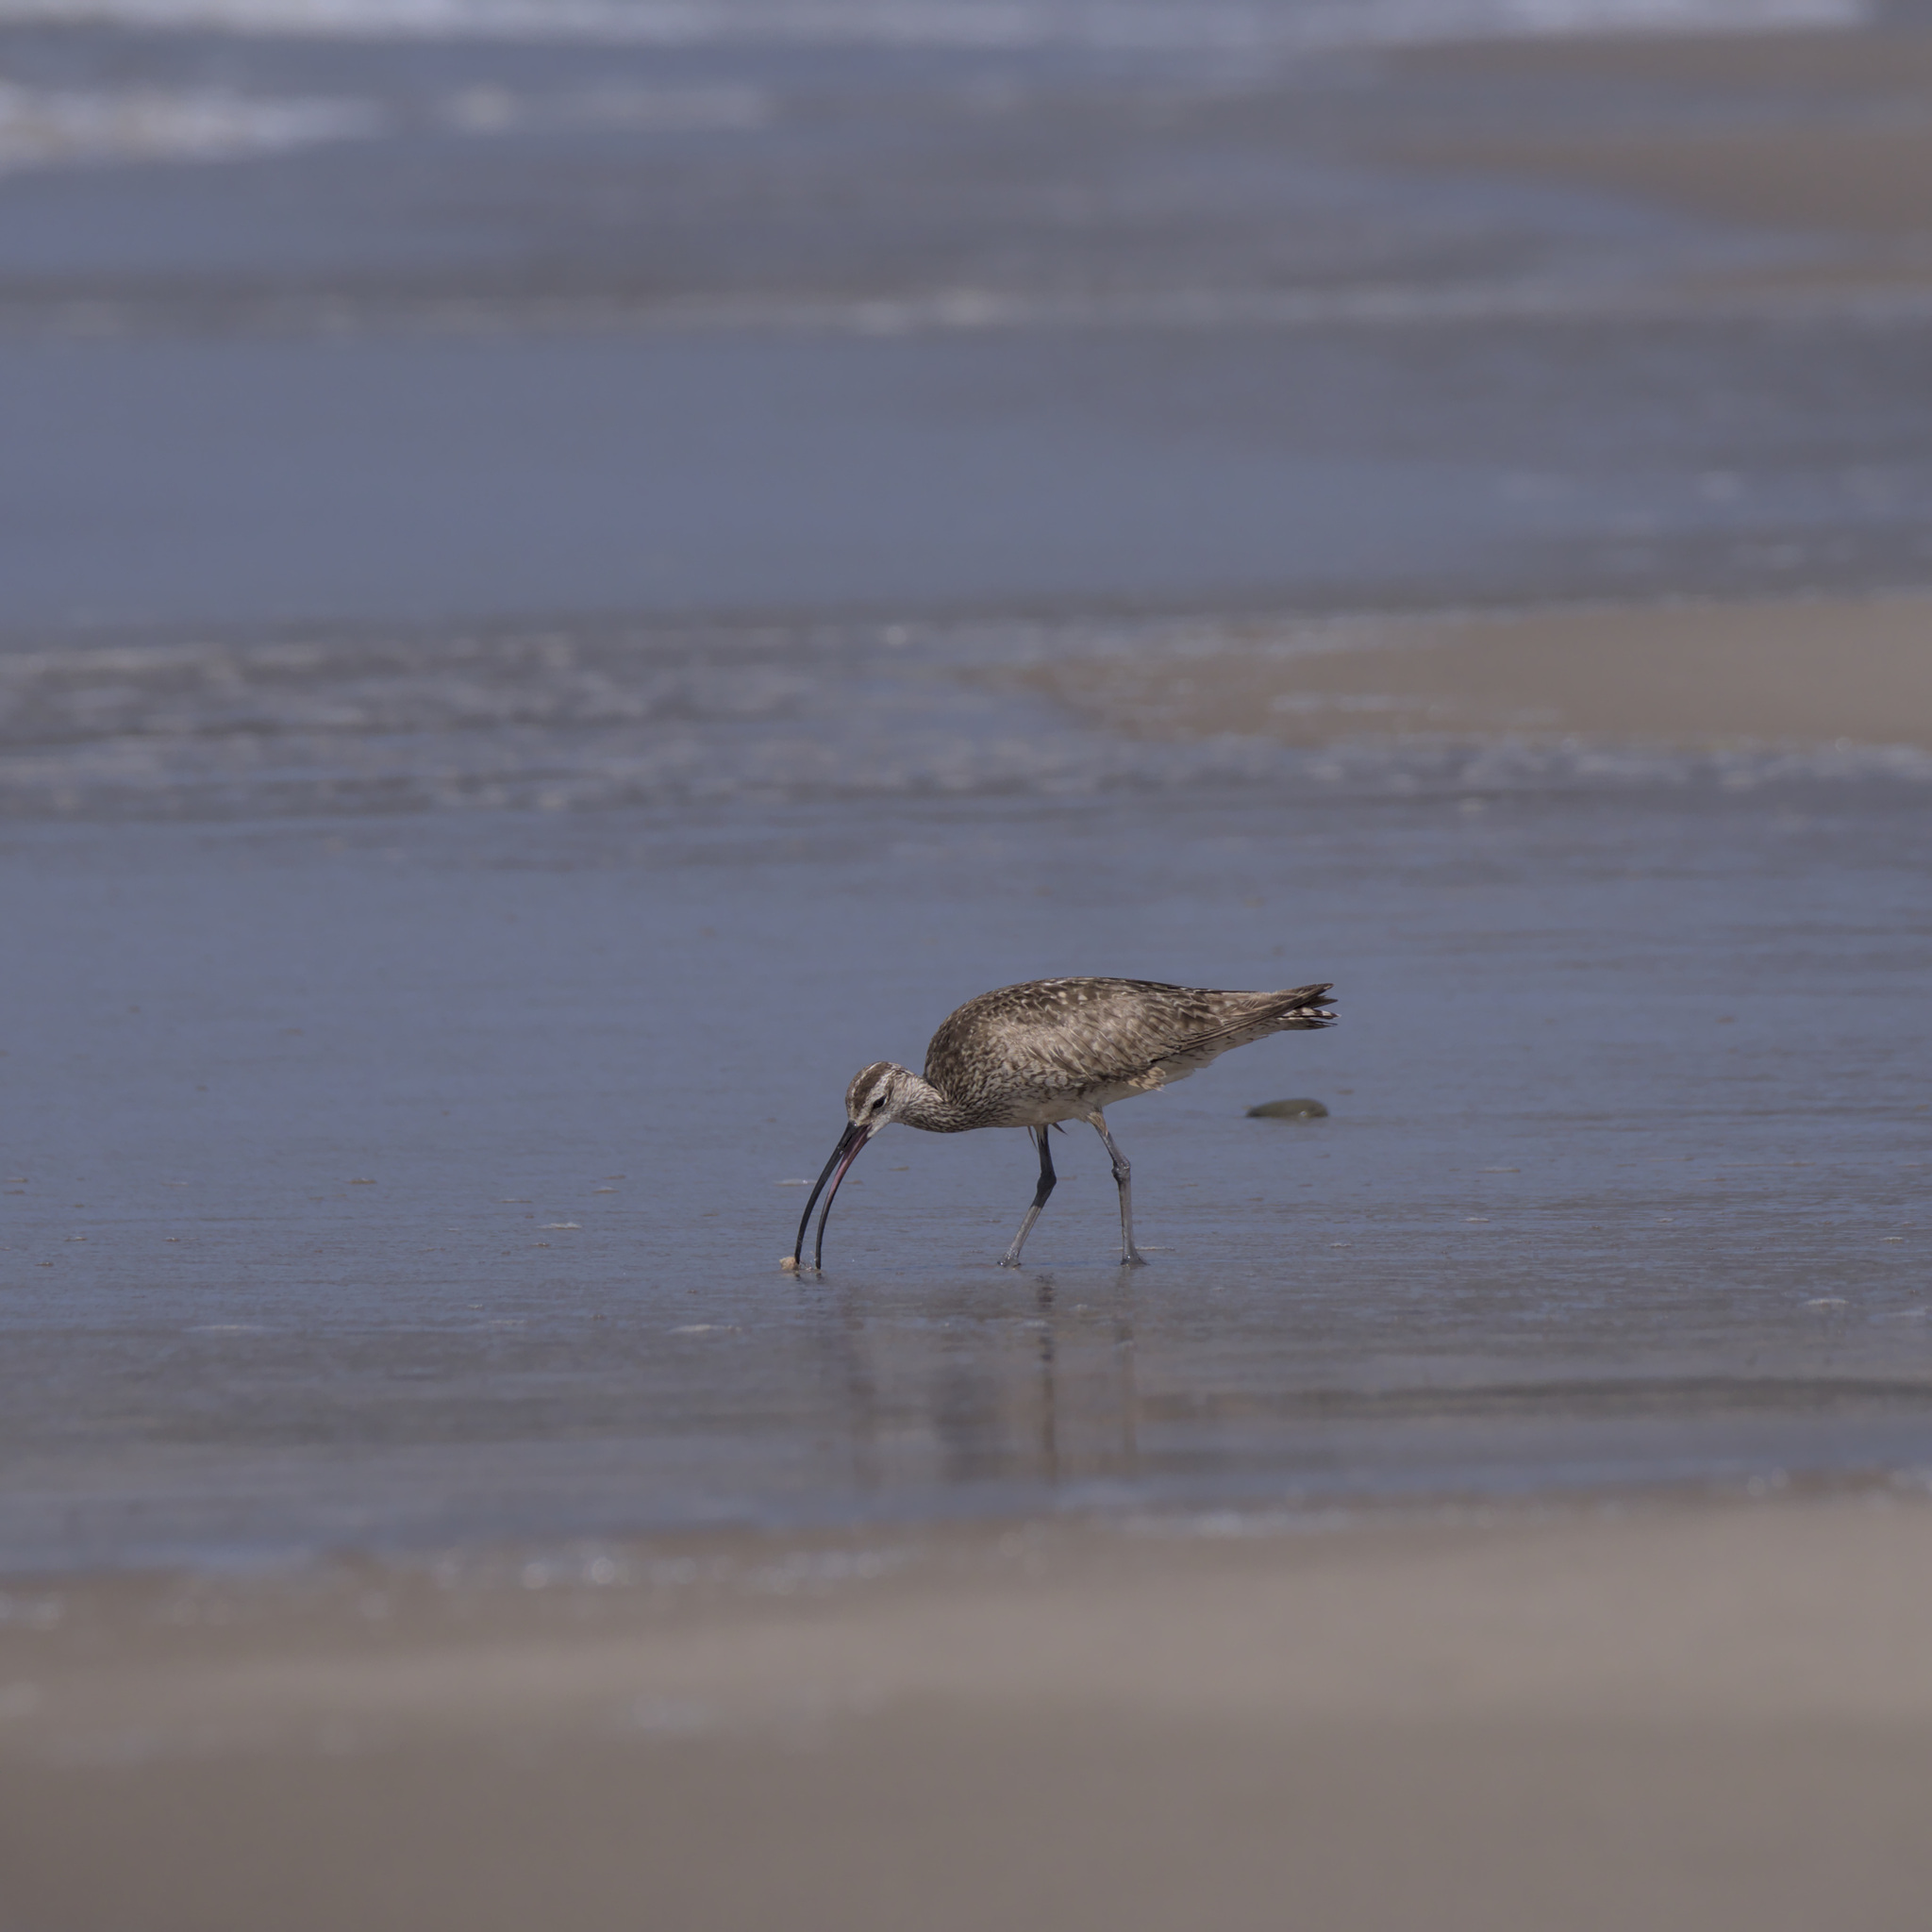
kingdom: Animalia
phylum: Chordata
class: Aves
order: Charadriiformes
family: Scolopacidae
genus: Numenius
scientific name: Numenius phaeopus
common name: Whimbrel
